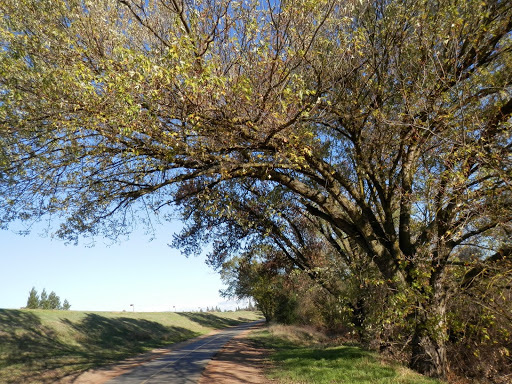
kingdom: Plantae
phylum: Tracheophyta
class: Magnoliopsida
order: Sapindales
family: Sapindaceae
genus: Acer
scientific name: Acer saccharinum
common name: Silver maple
